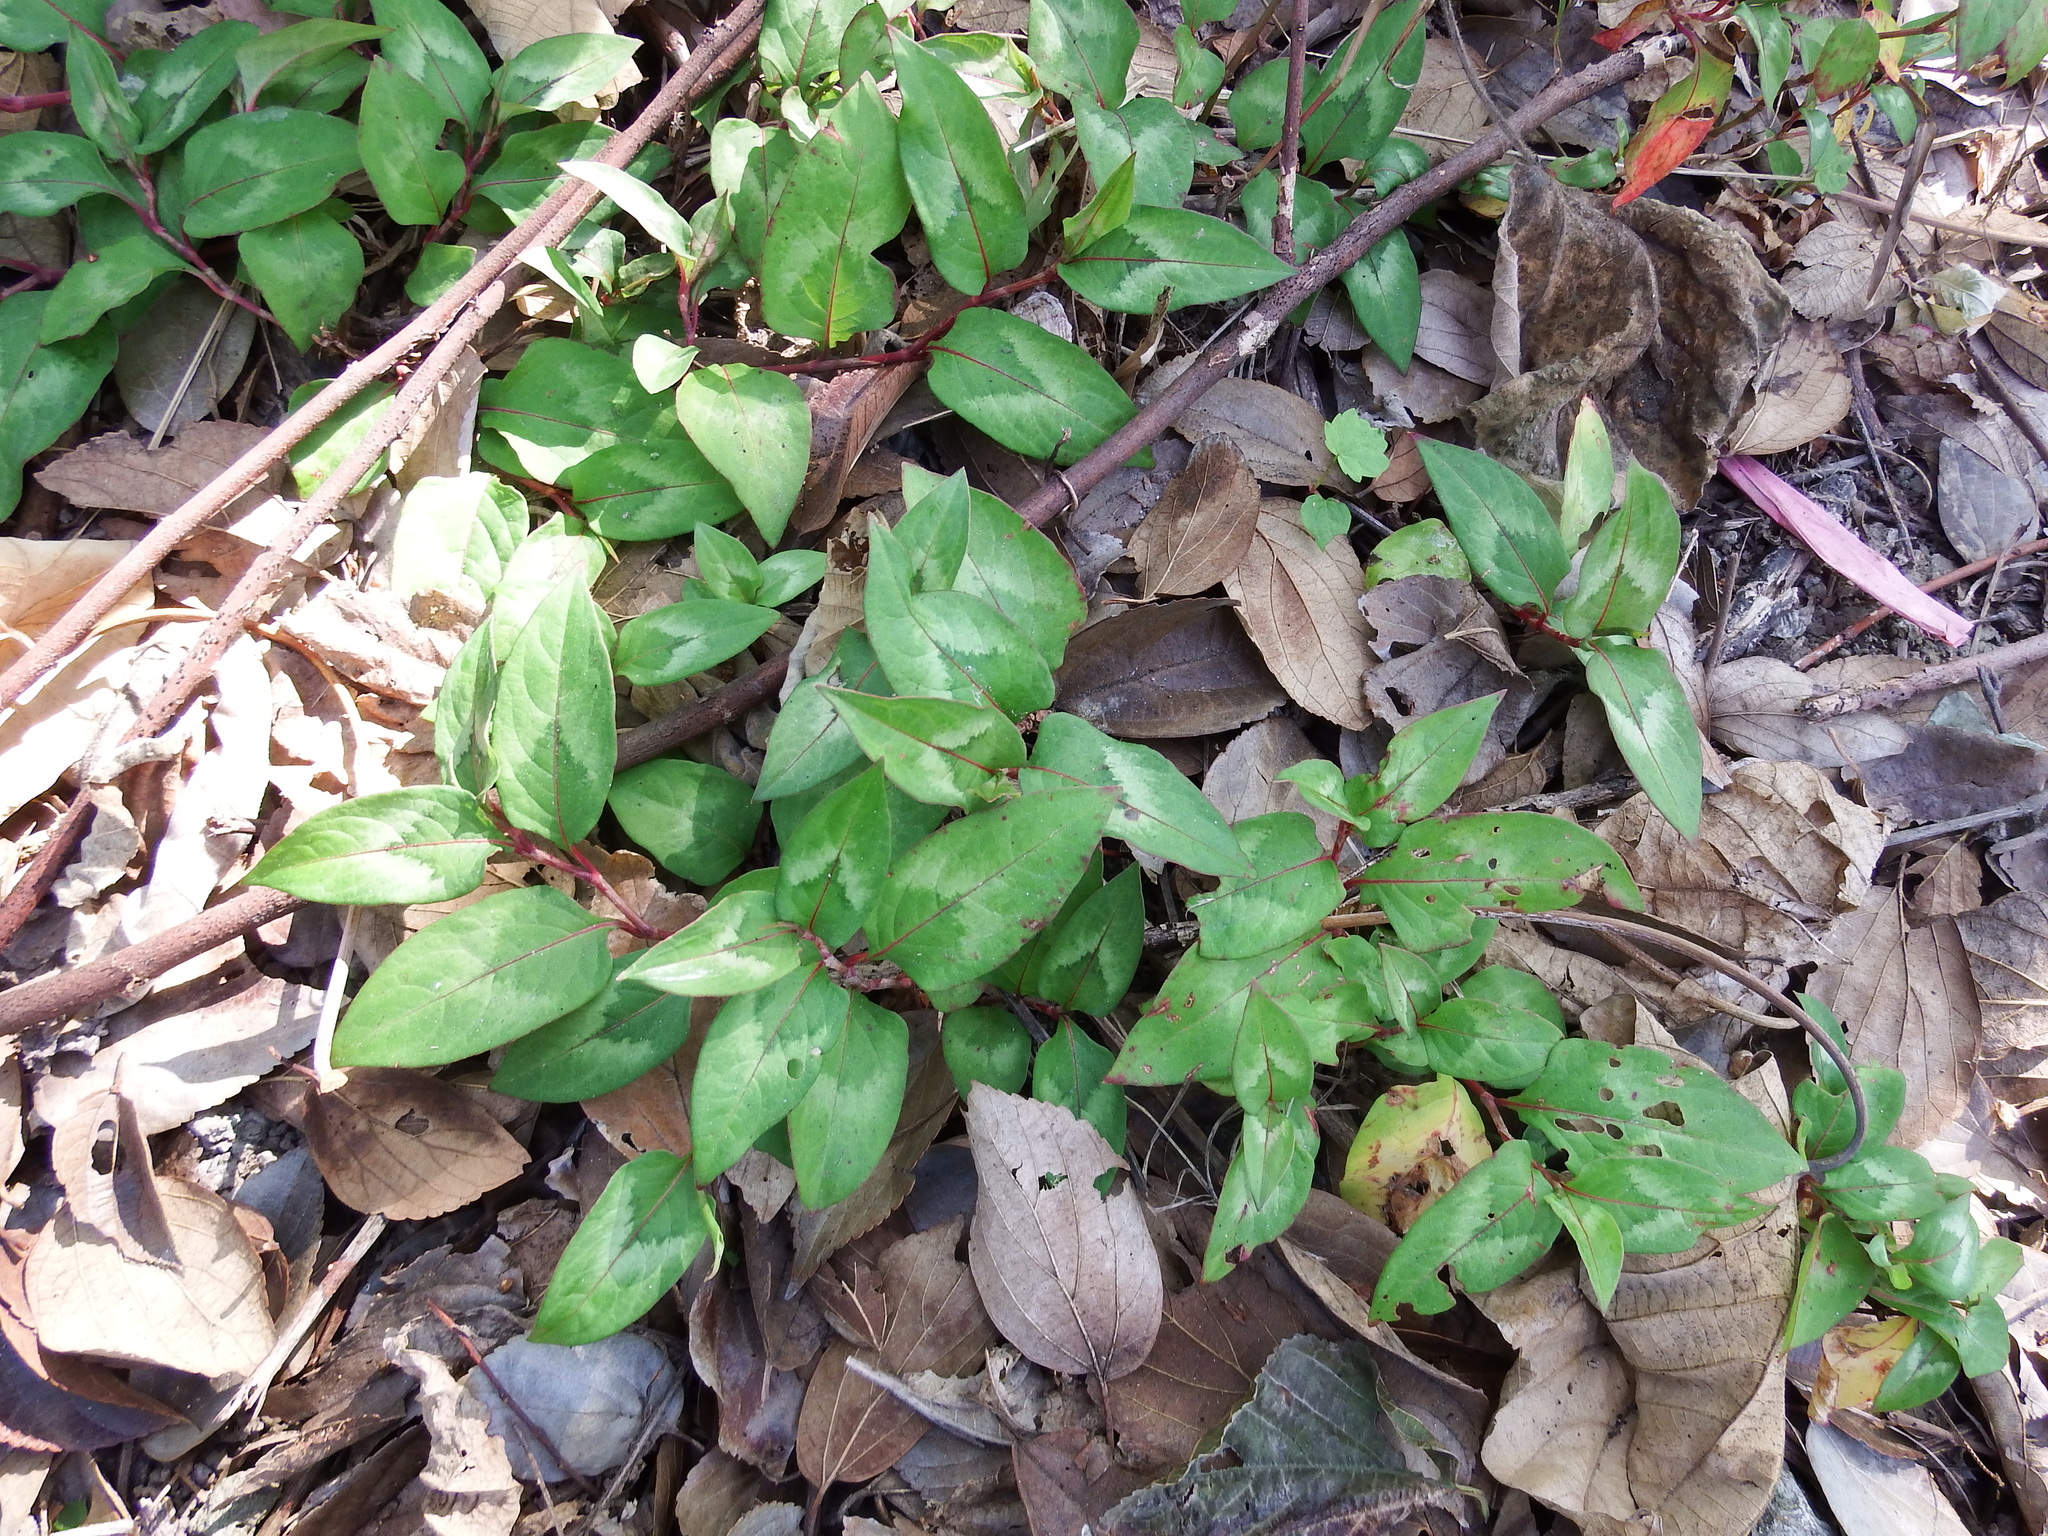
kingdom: Plantae
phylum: Tracheophyta
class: Magnoliopsida
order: Caryophyllales
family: Polygonaceae
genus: Persicaria
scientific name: Persicaria chinensis
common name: Chinese knotweed
